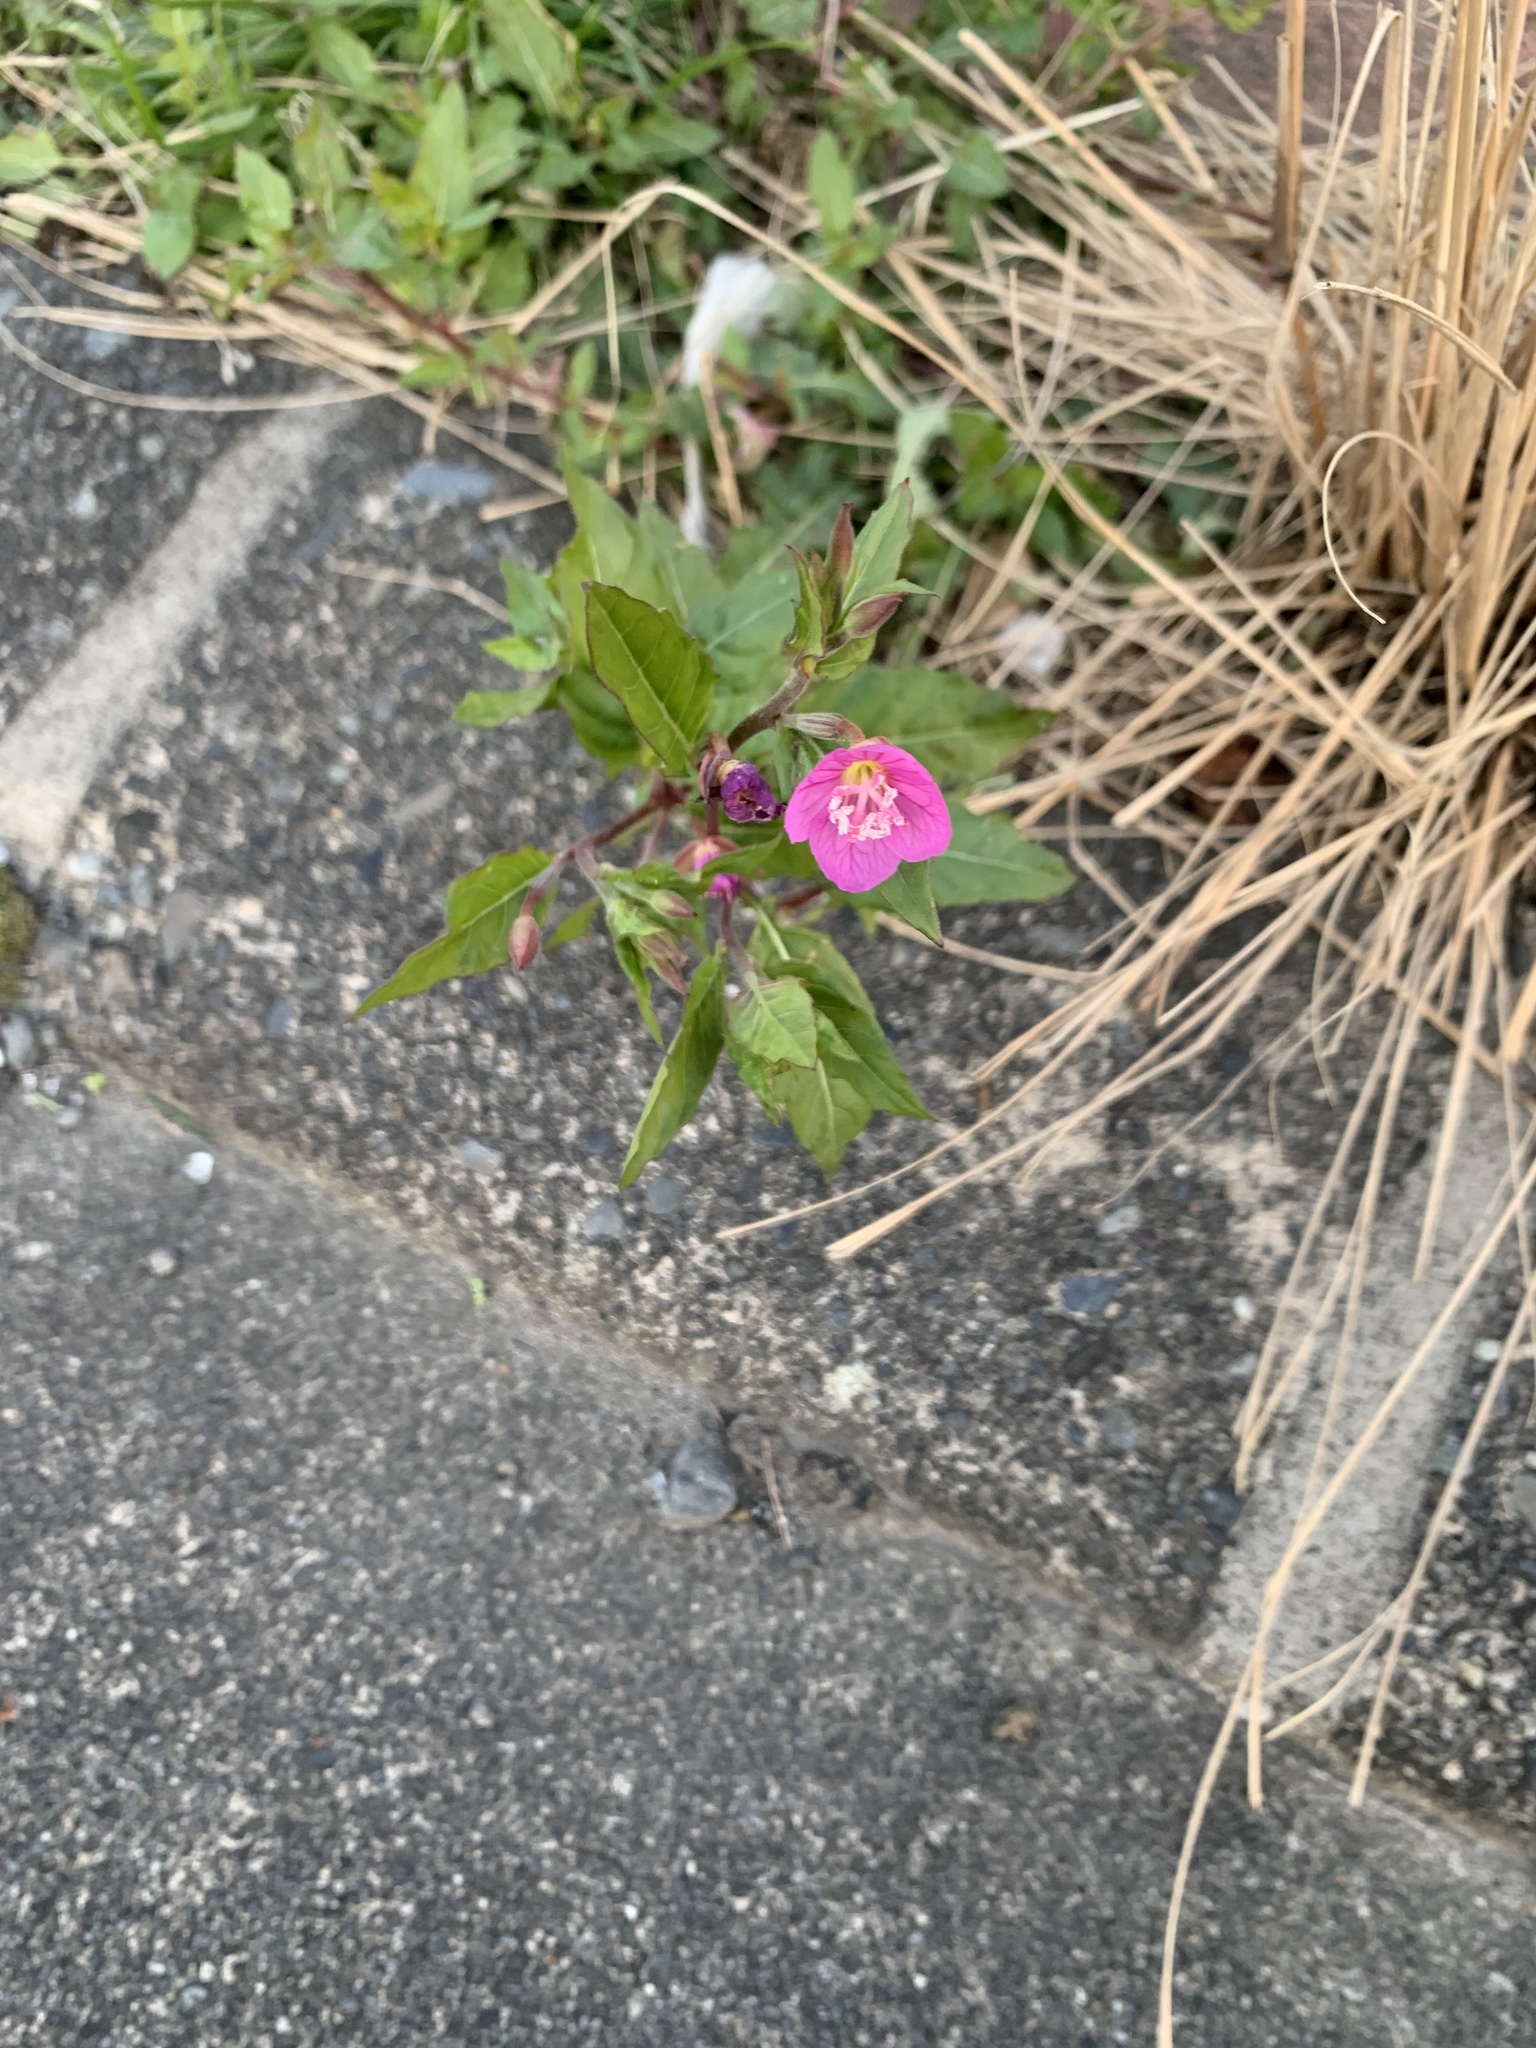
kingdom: Plantae
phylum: Tracheophyta
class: Magnoliopsida
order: Myrtales
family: Onagraceae
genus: Oenothera
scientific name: Oenothera rosea
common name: Rosy evening-primrose
